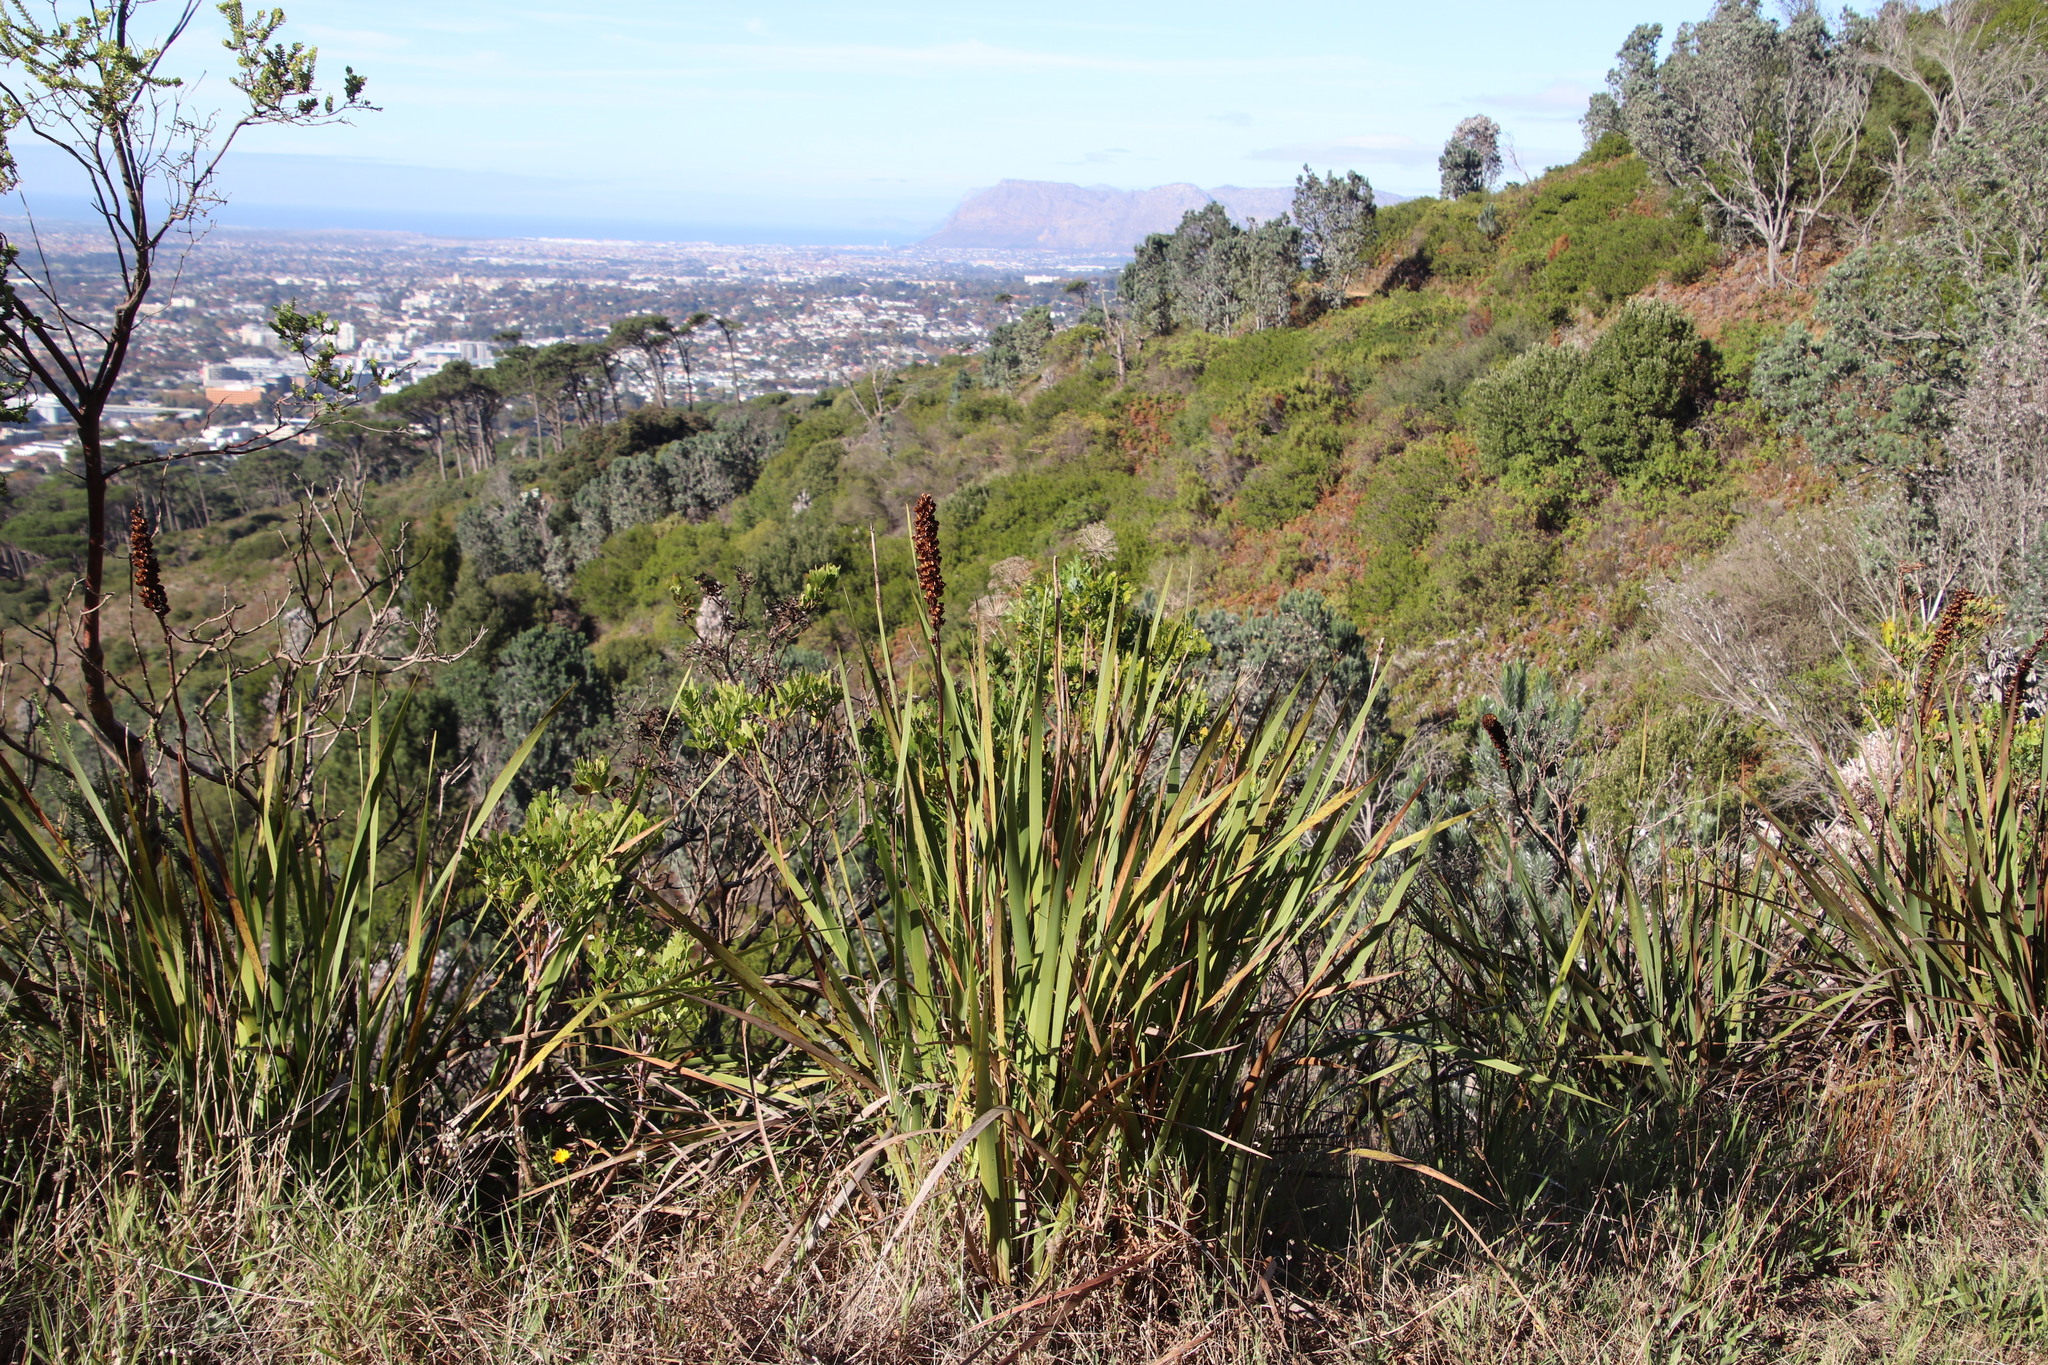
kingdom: Plantae
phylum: Tracheophyta
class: Liliopsida
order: Asparagales
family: Iridaceae
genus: Aristea
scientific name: Aristea capitata
